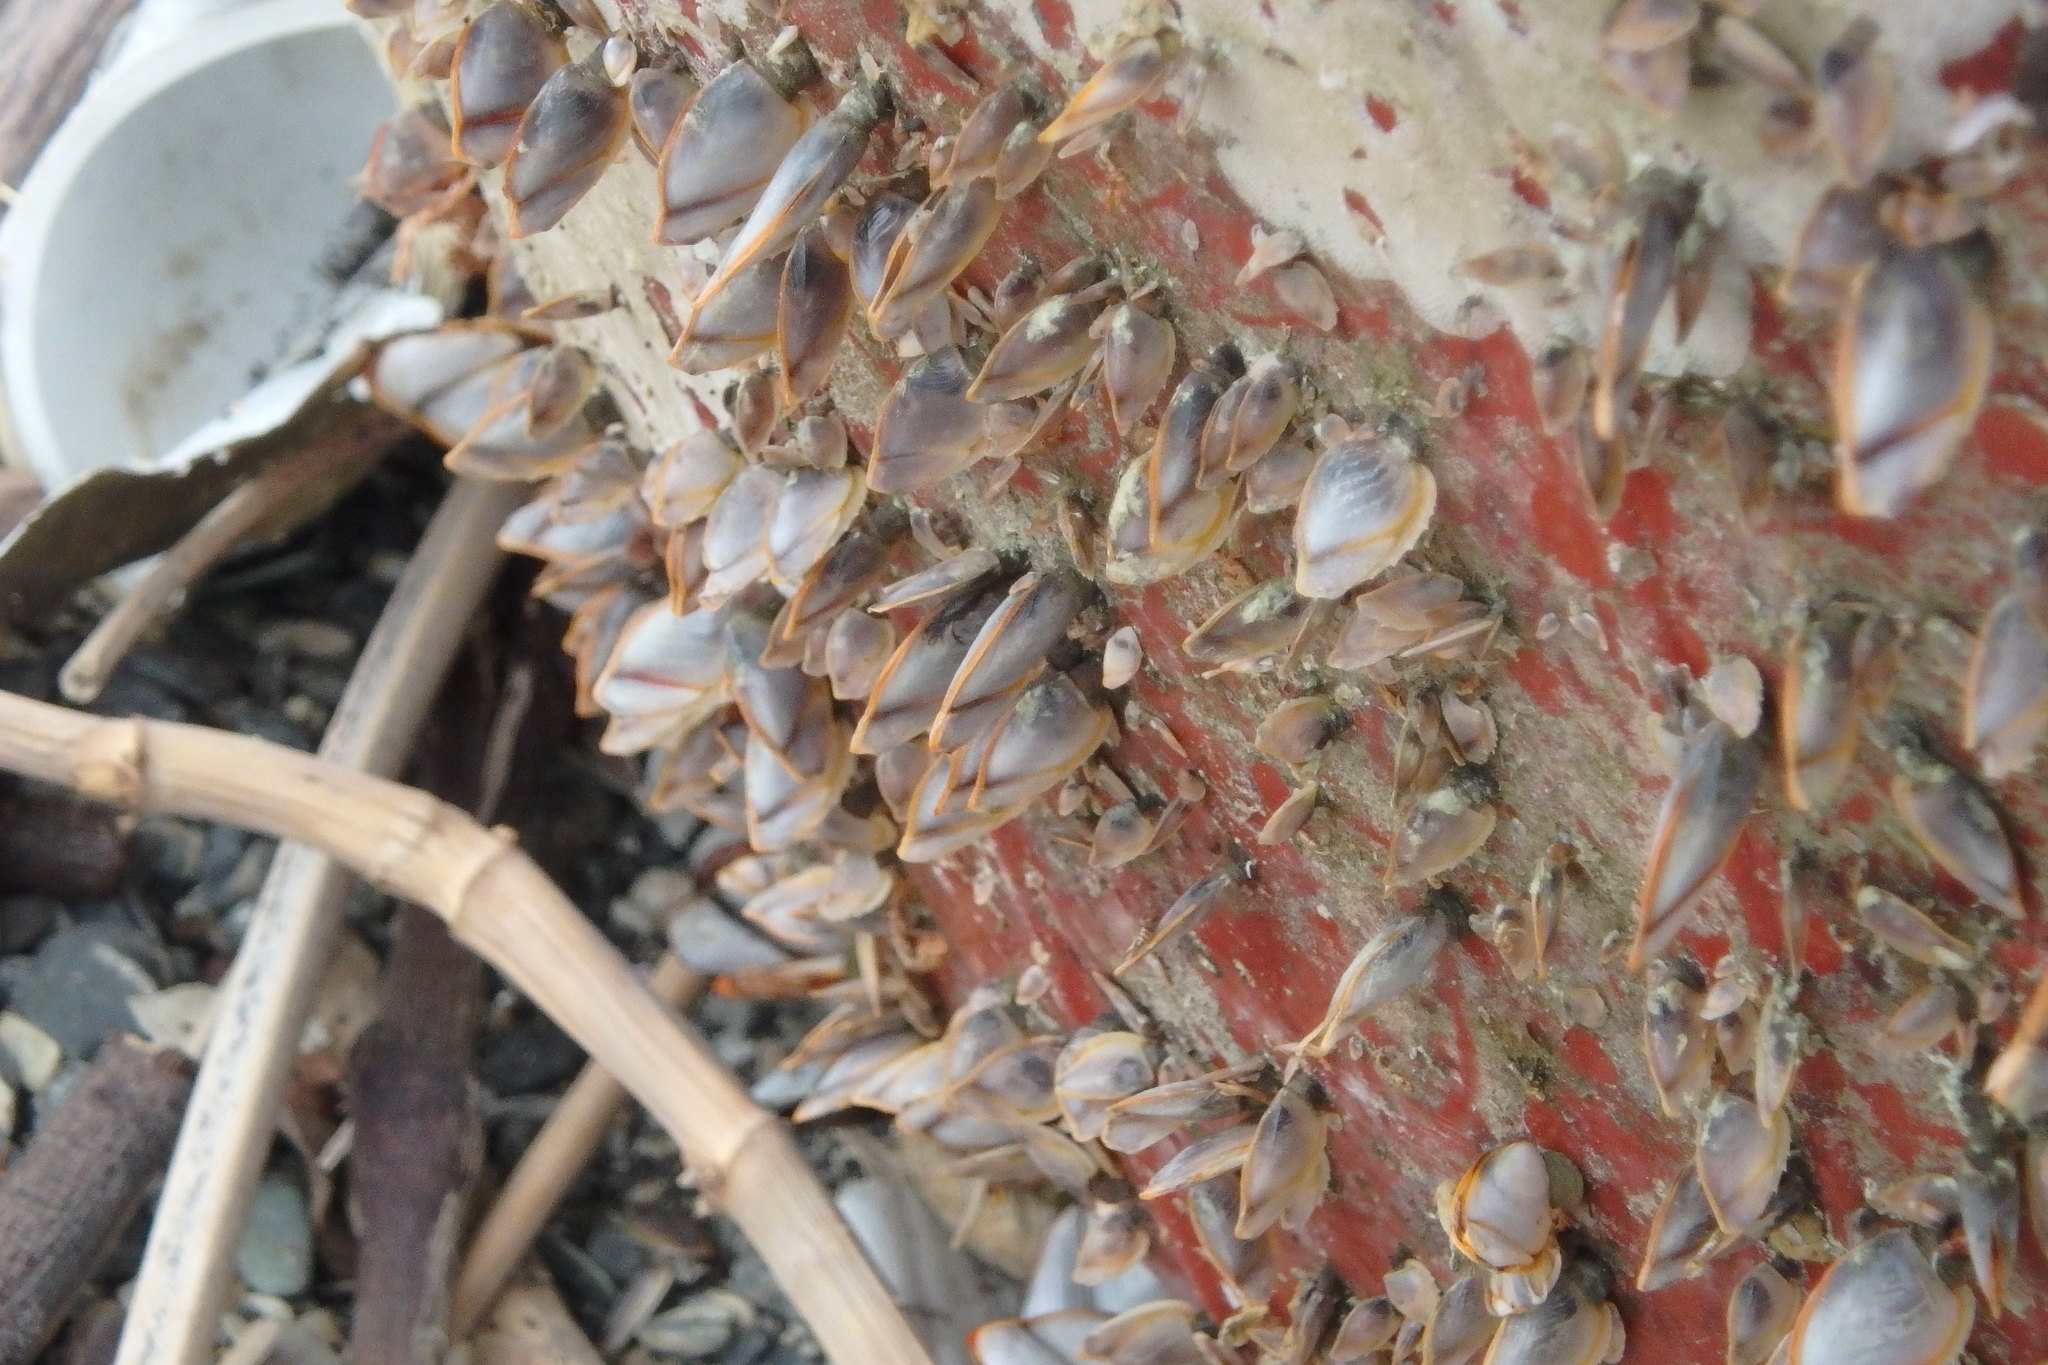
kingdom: Animalia
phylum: Arthropoda
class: Maxillopoda
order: Pedunculata
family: Lepadidae
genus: Lepas
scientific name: Lepas anatifera
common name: Common goose barnacle
